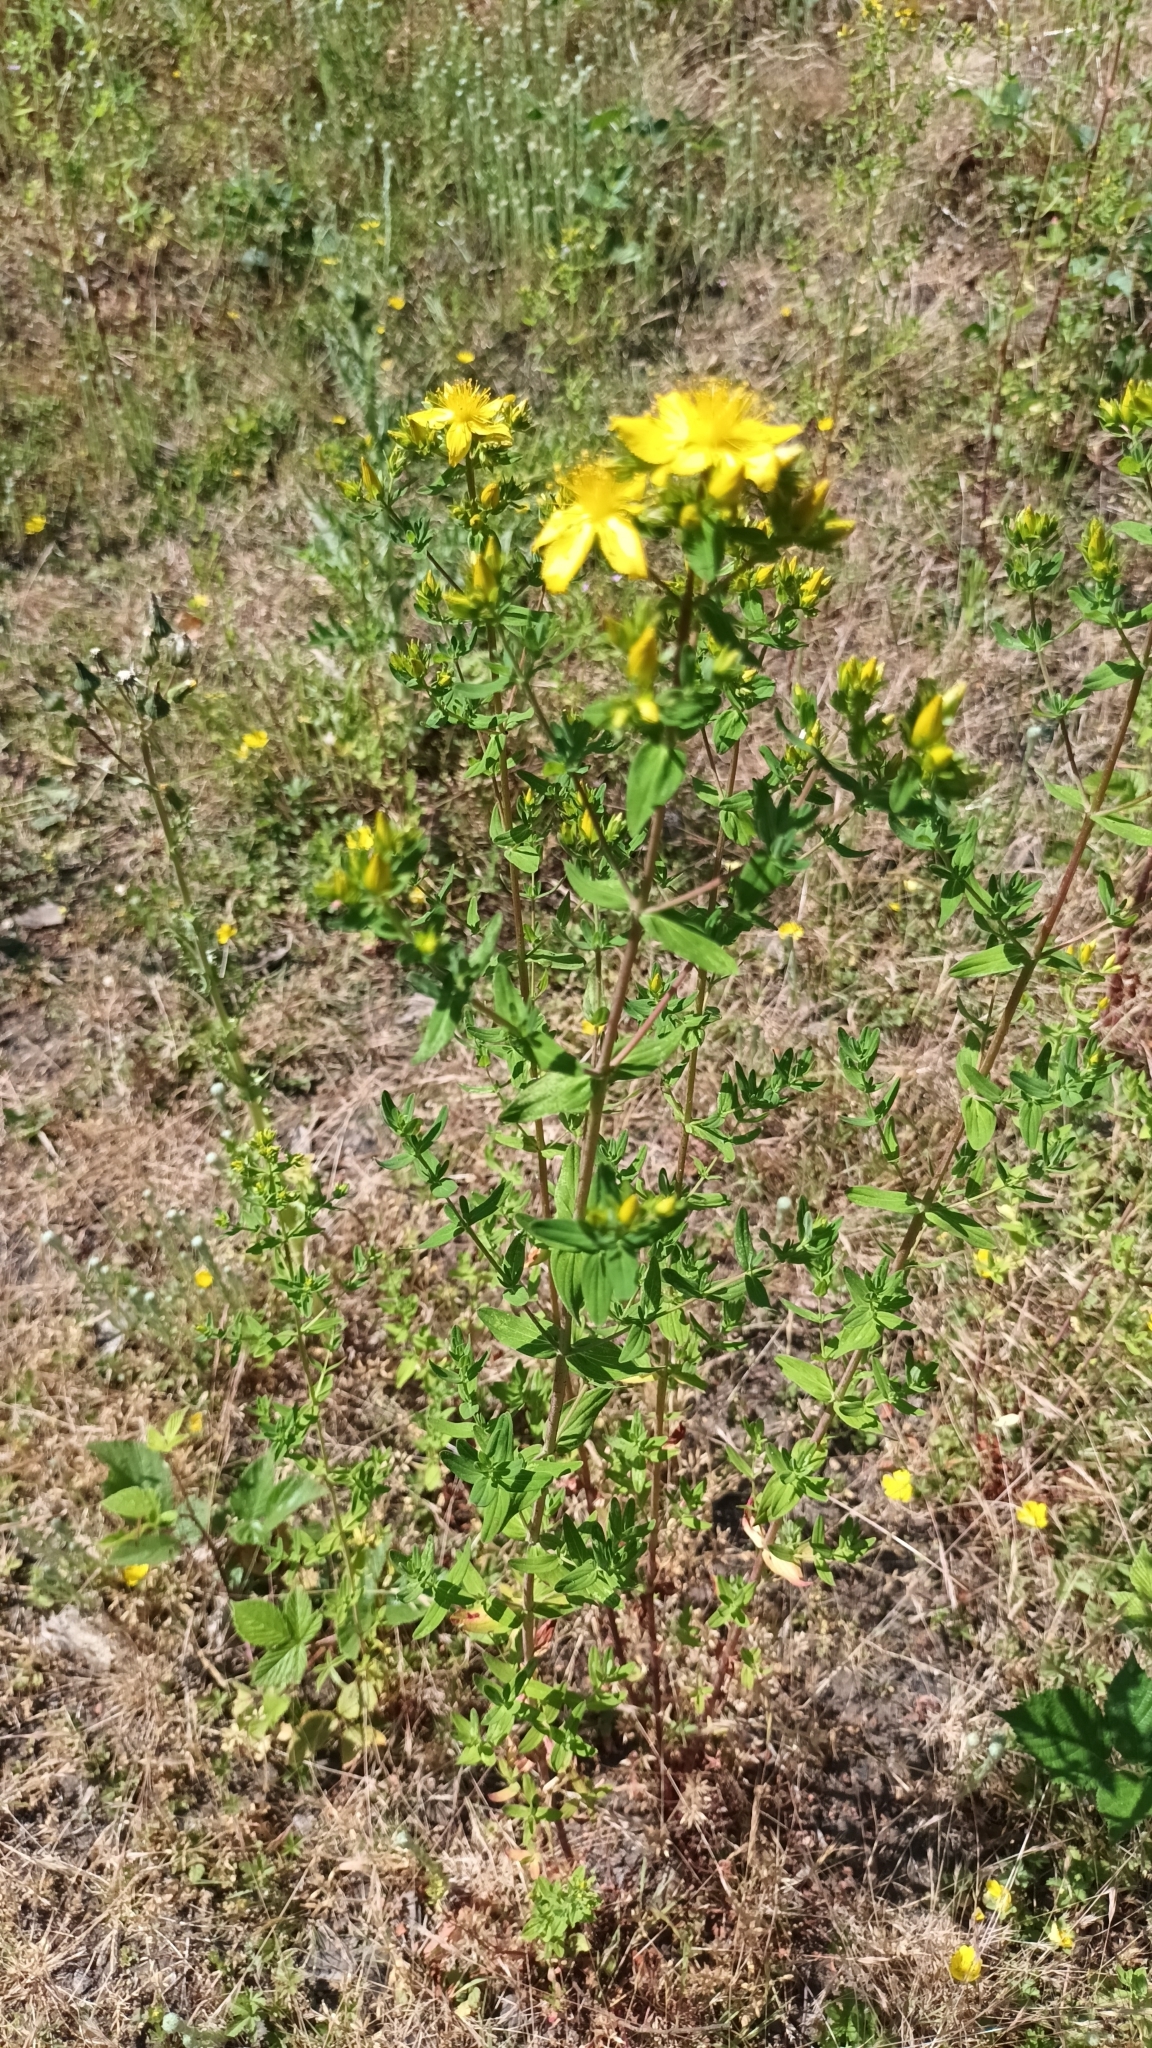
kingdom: Plantae
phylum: Tracheophyta
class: Magnoliopsida
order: Malpighiales
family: Hypericaceae
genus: Hypericum
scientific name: Hypericum perforatum
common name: Common st. johnswort
